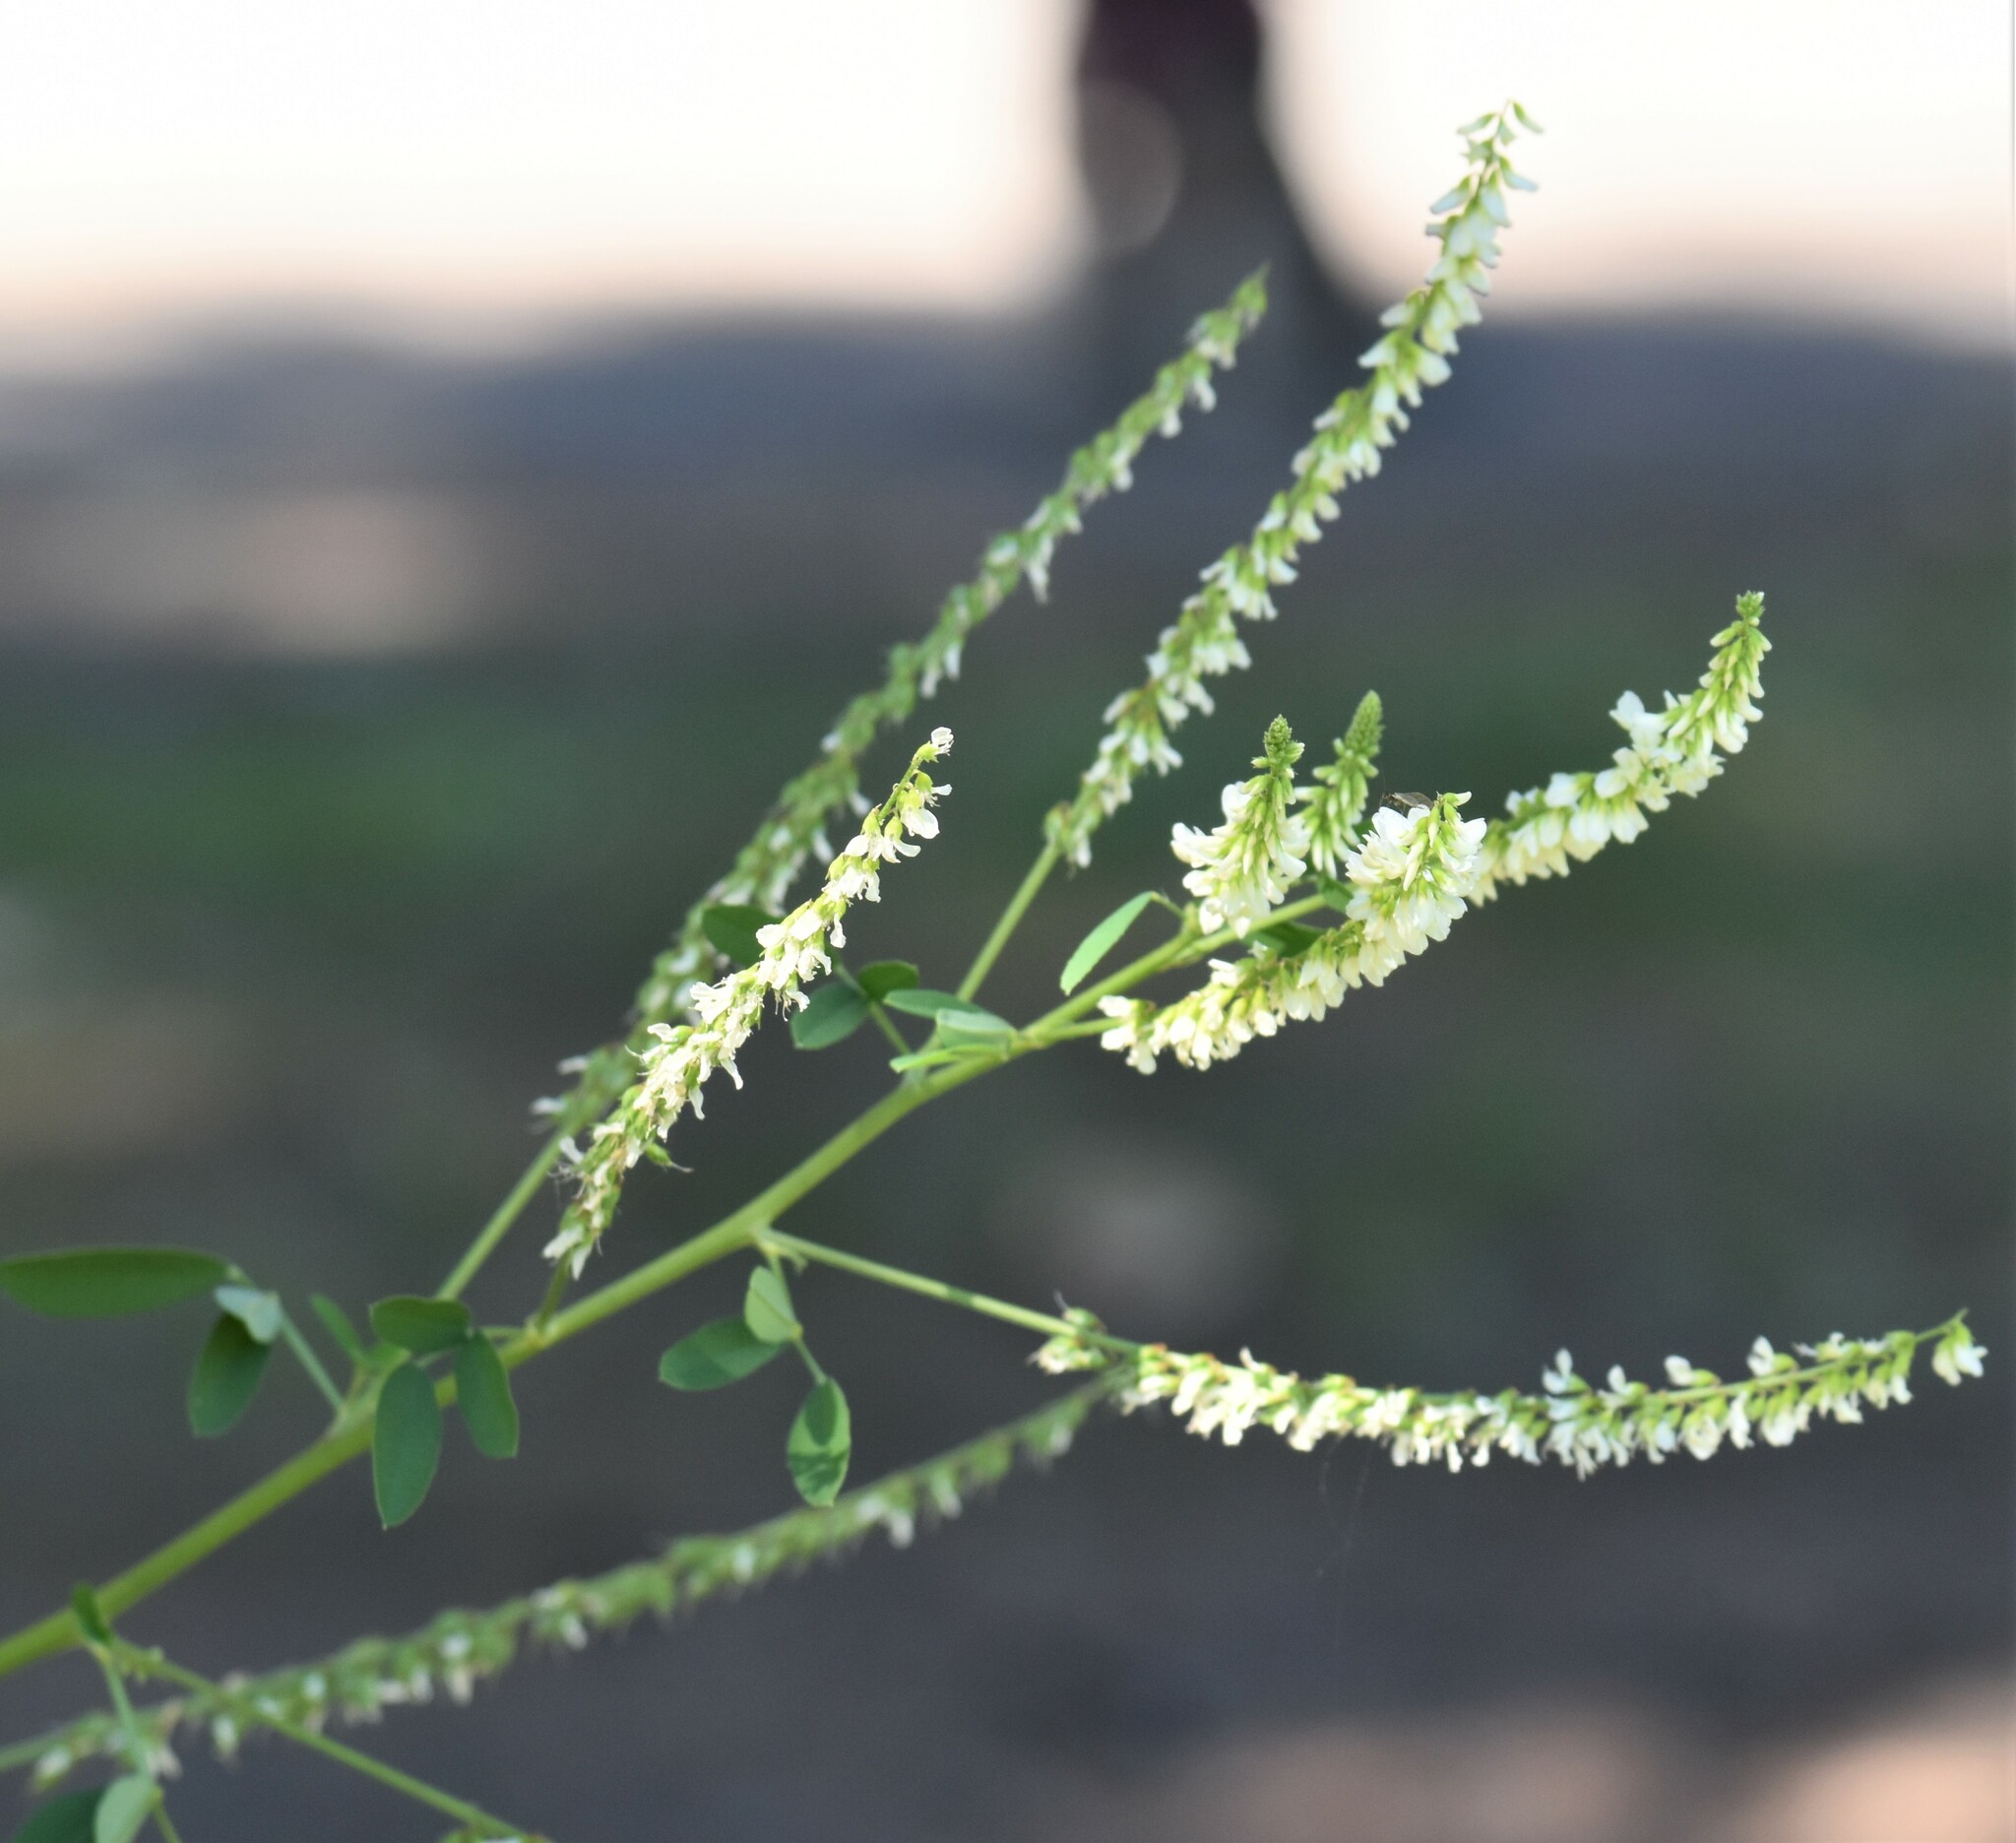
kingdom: Plantae
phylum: Tracheophyta
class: Magnoliopsida
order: Fabales
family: Fabaceae
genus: Melilotus
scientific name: Melilotus albus
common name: White melilot
